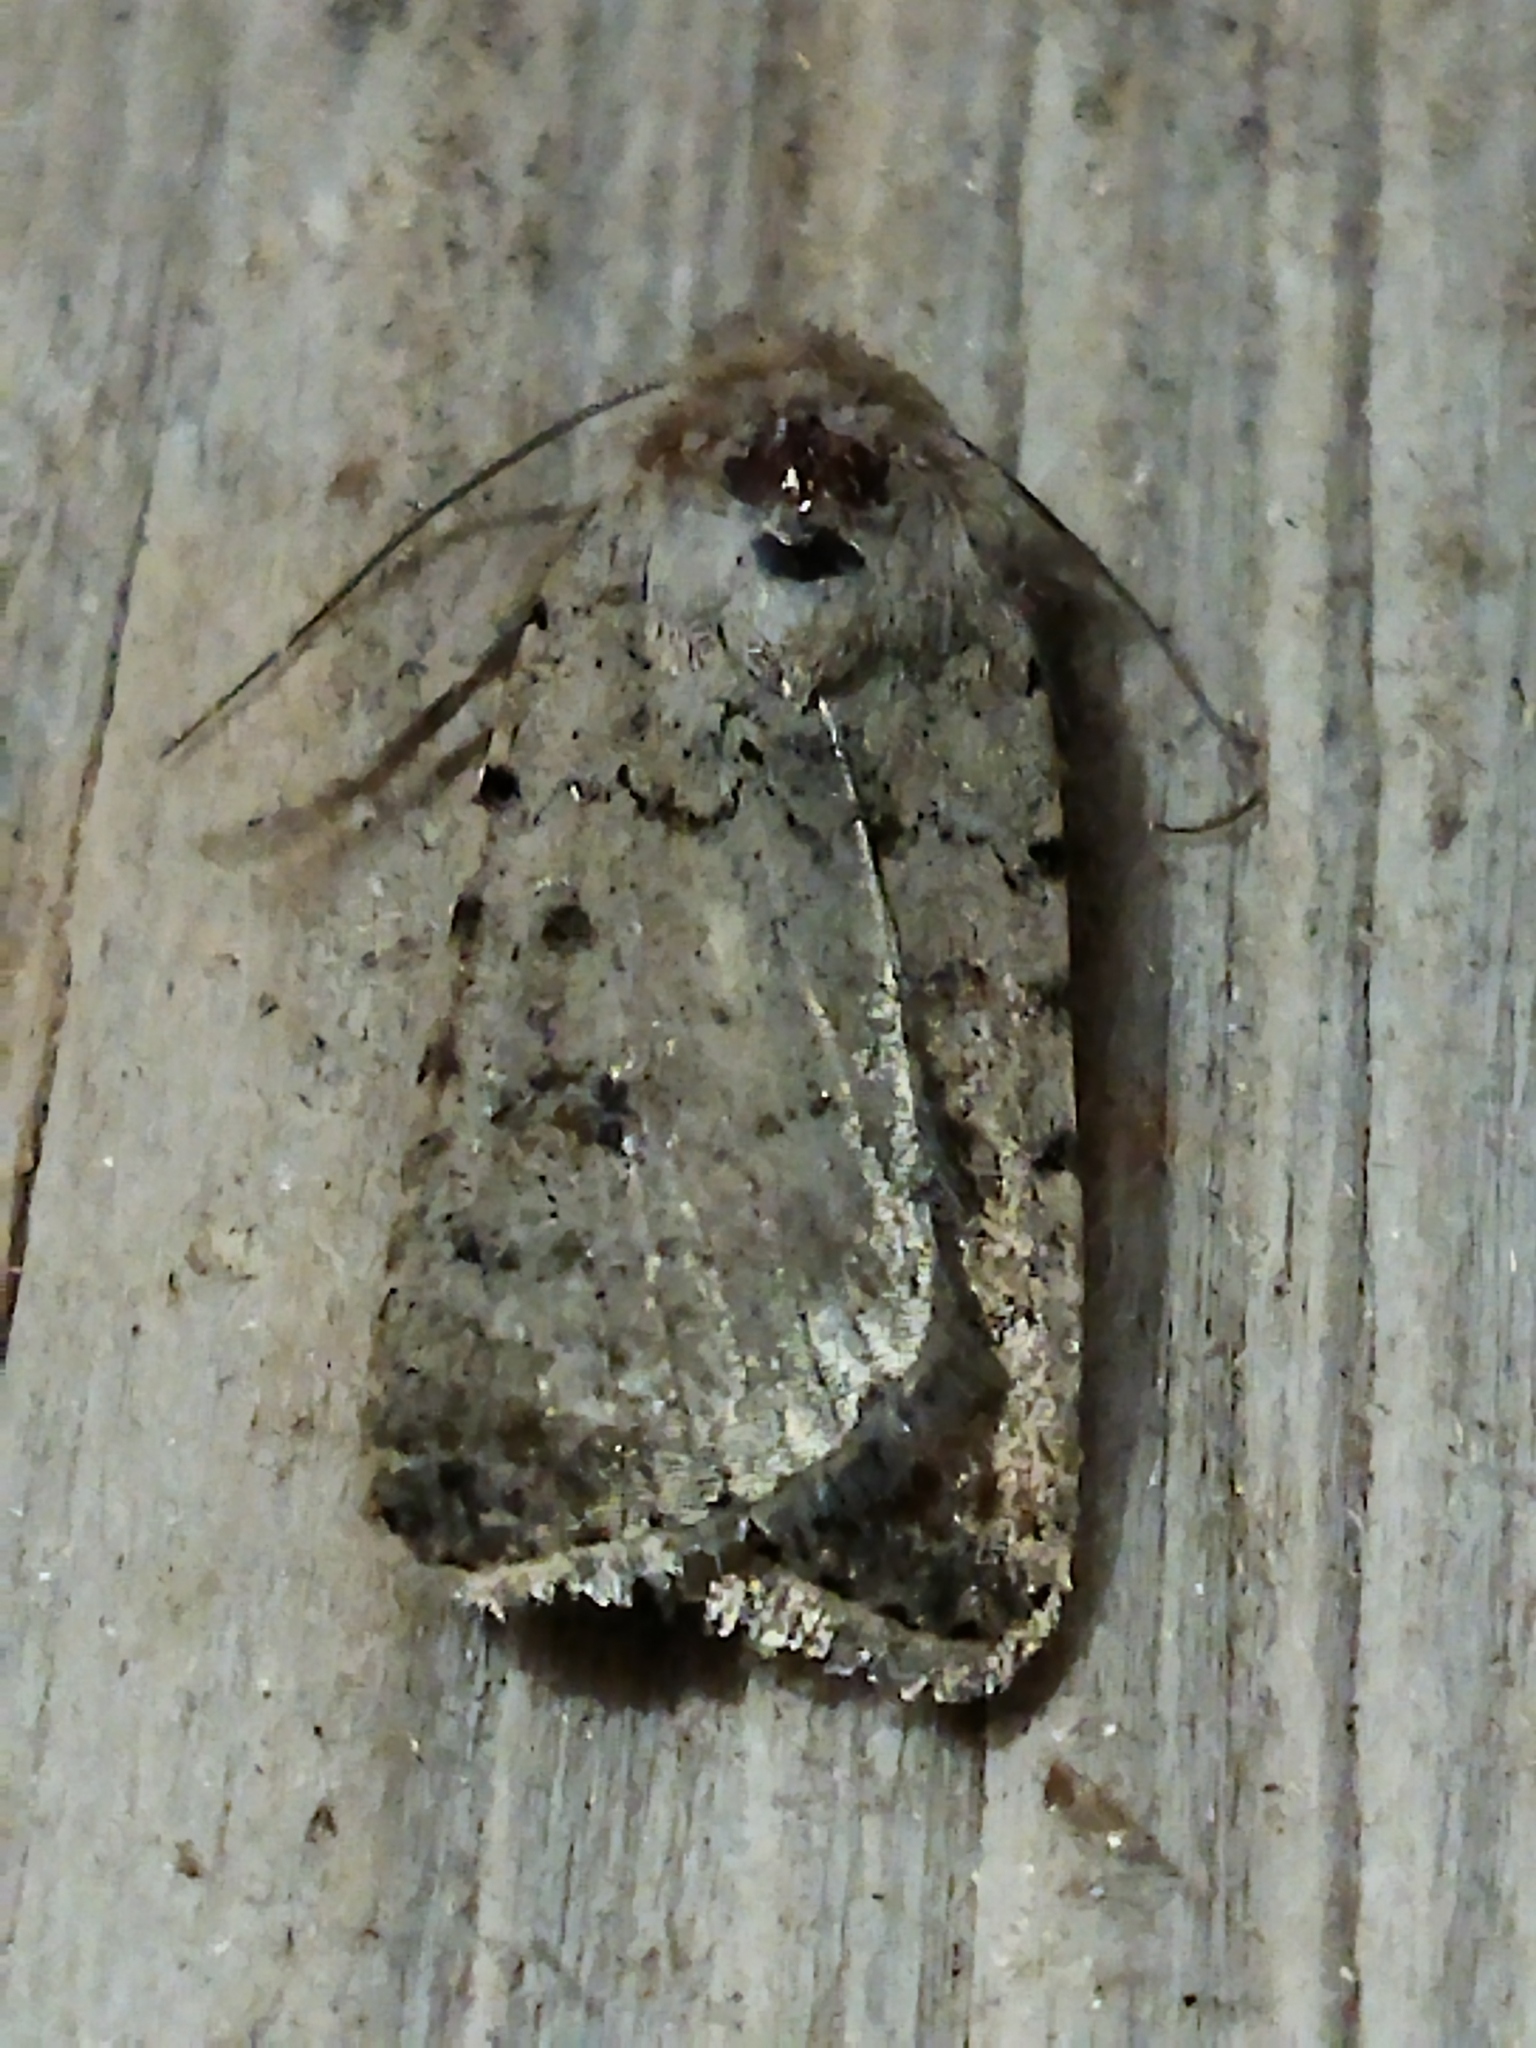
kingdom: Animalia
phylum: Arthropoda
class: Insecta
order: Lepidoptera
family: Noctuidae
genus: Caradrina
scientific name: Caradrina clavipalpis
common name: Pale mottled willow
